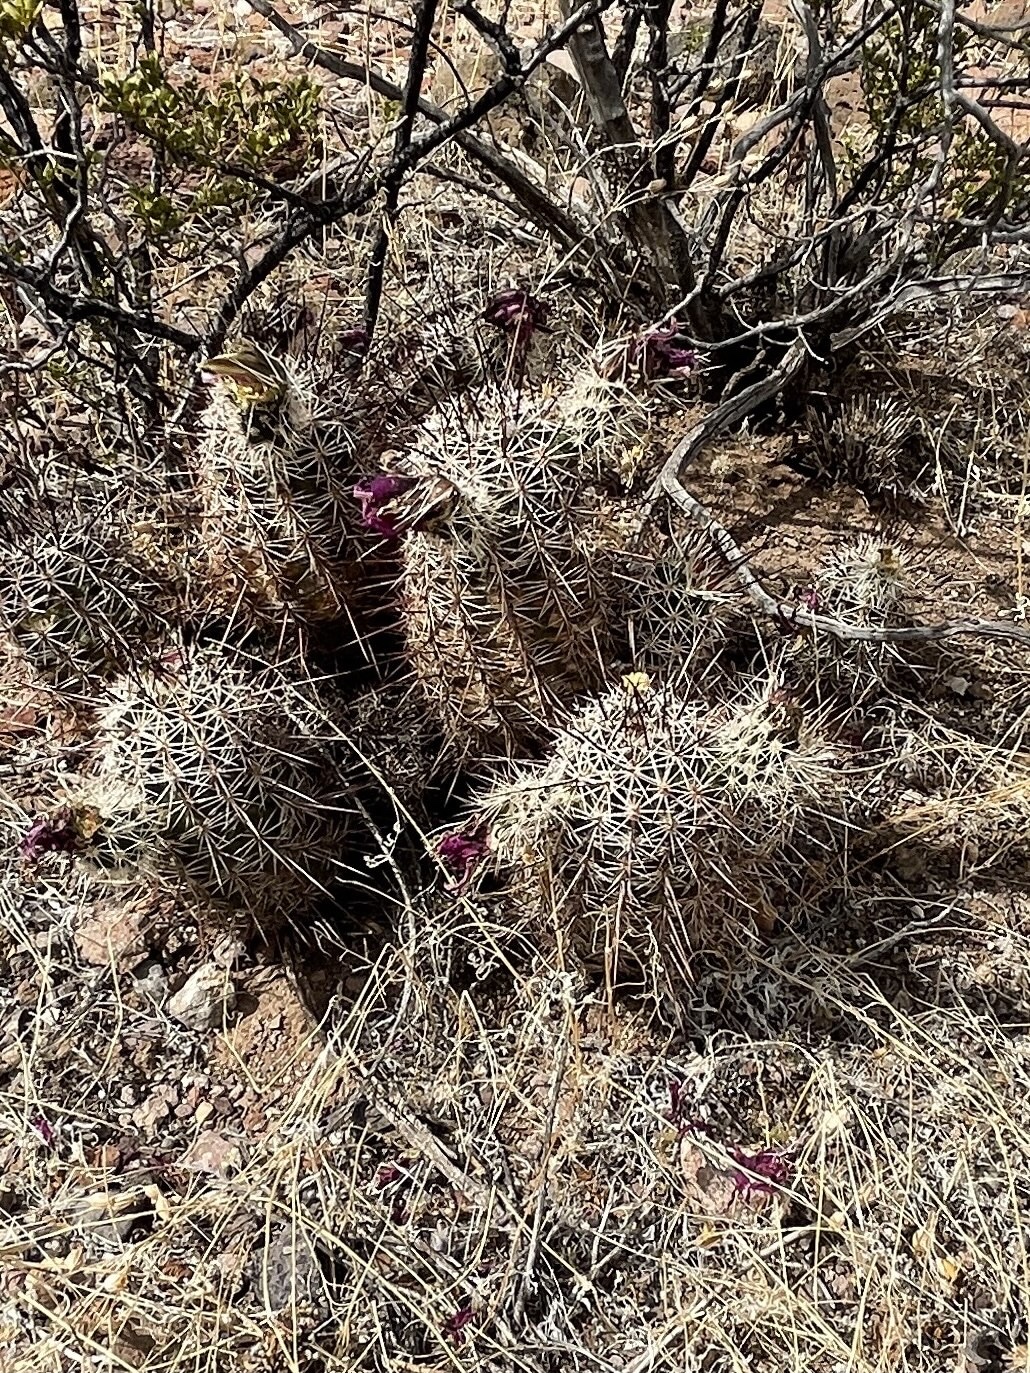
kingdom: Plantae
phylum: Tracheophyta
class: Magnoliopsida
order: Caryophyllales
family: Cactaceae
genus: Echinocereus
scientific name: Echinocereus fasciculatus
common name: Bundle hedgehog
